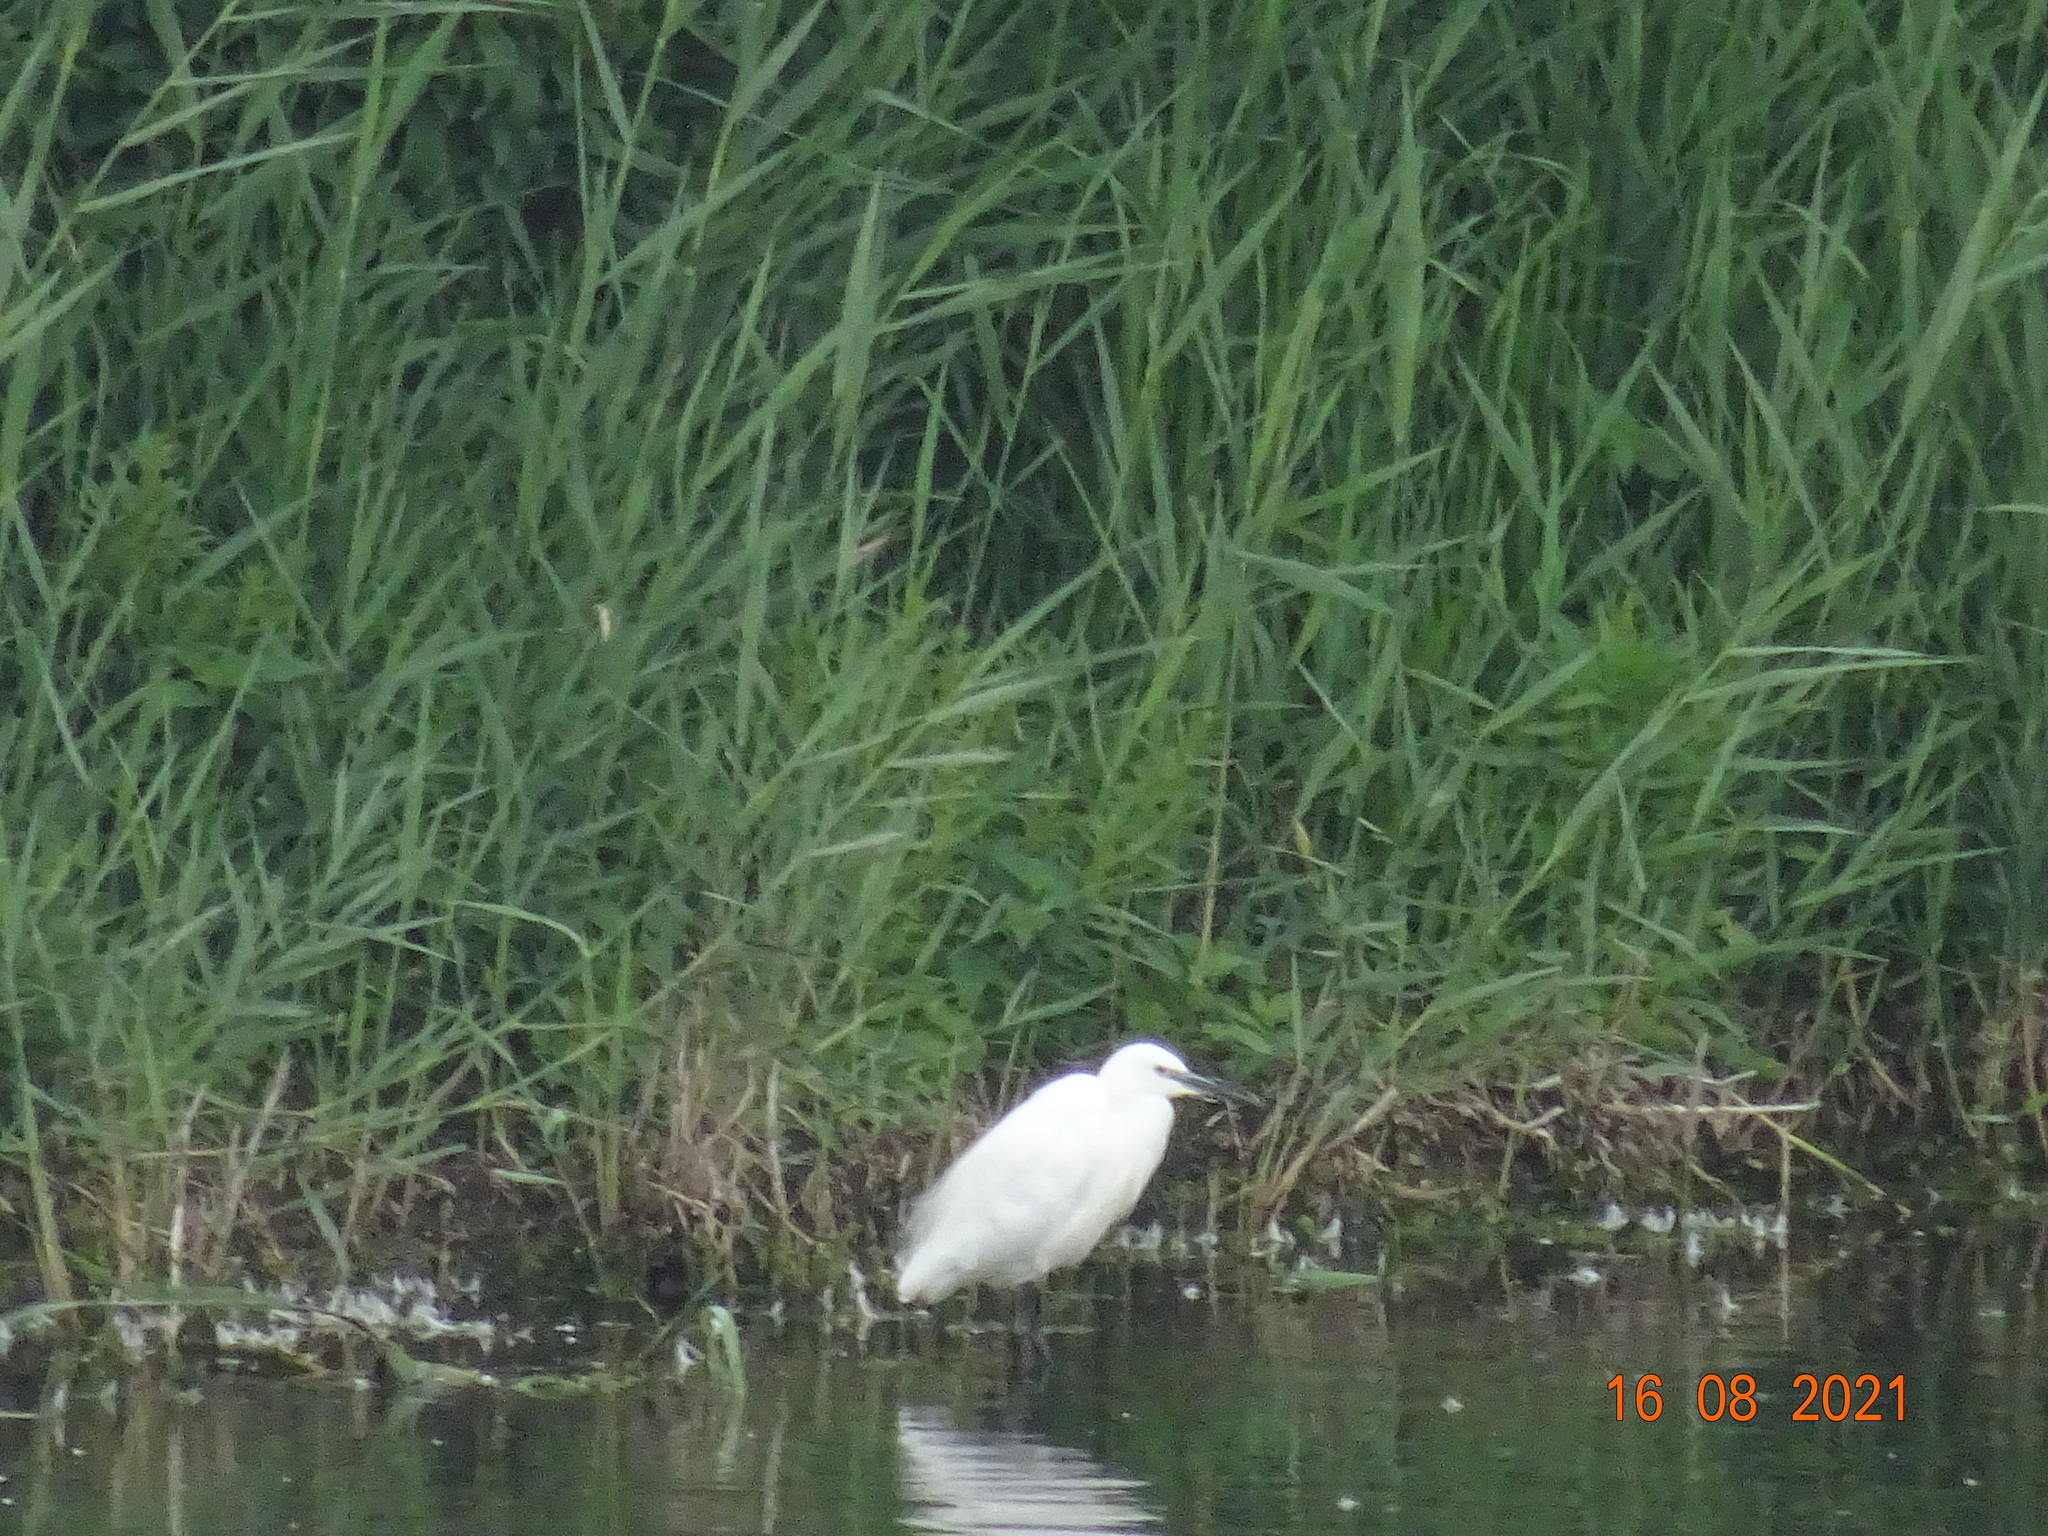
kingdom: Animalia
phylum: Chordata
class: Aves
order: Pelecaniformes
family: Ardeidae
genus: Egretta
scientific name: Egretta garzetta
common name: Little egret
